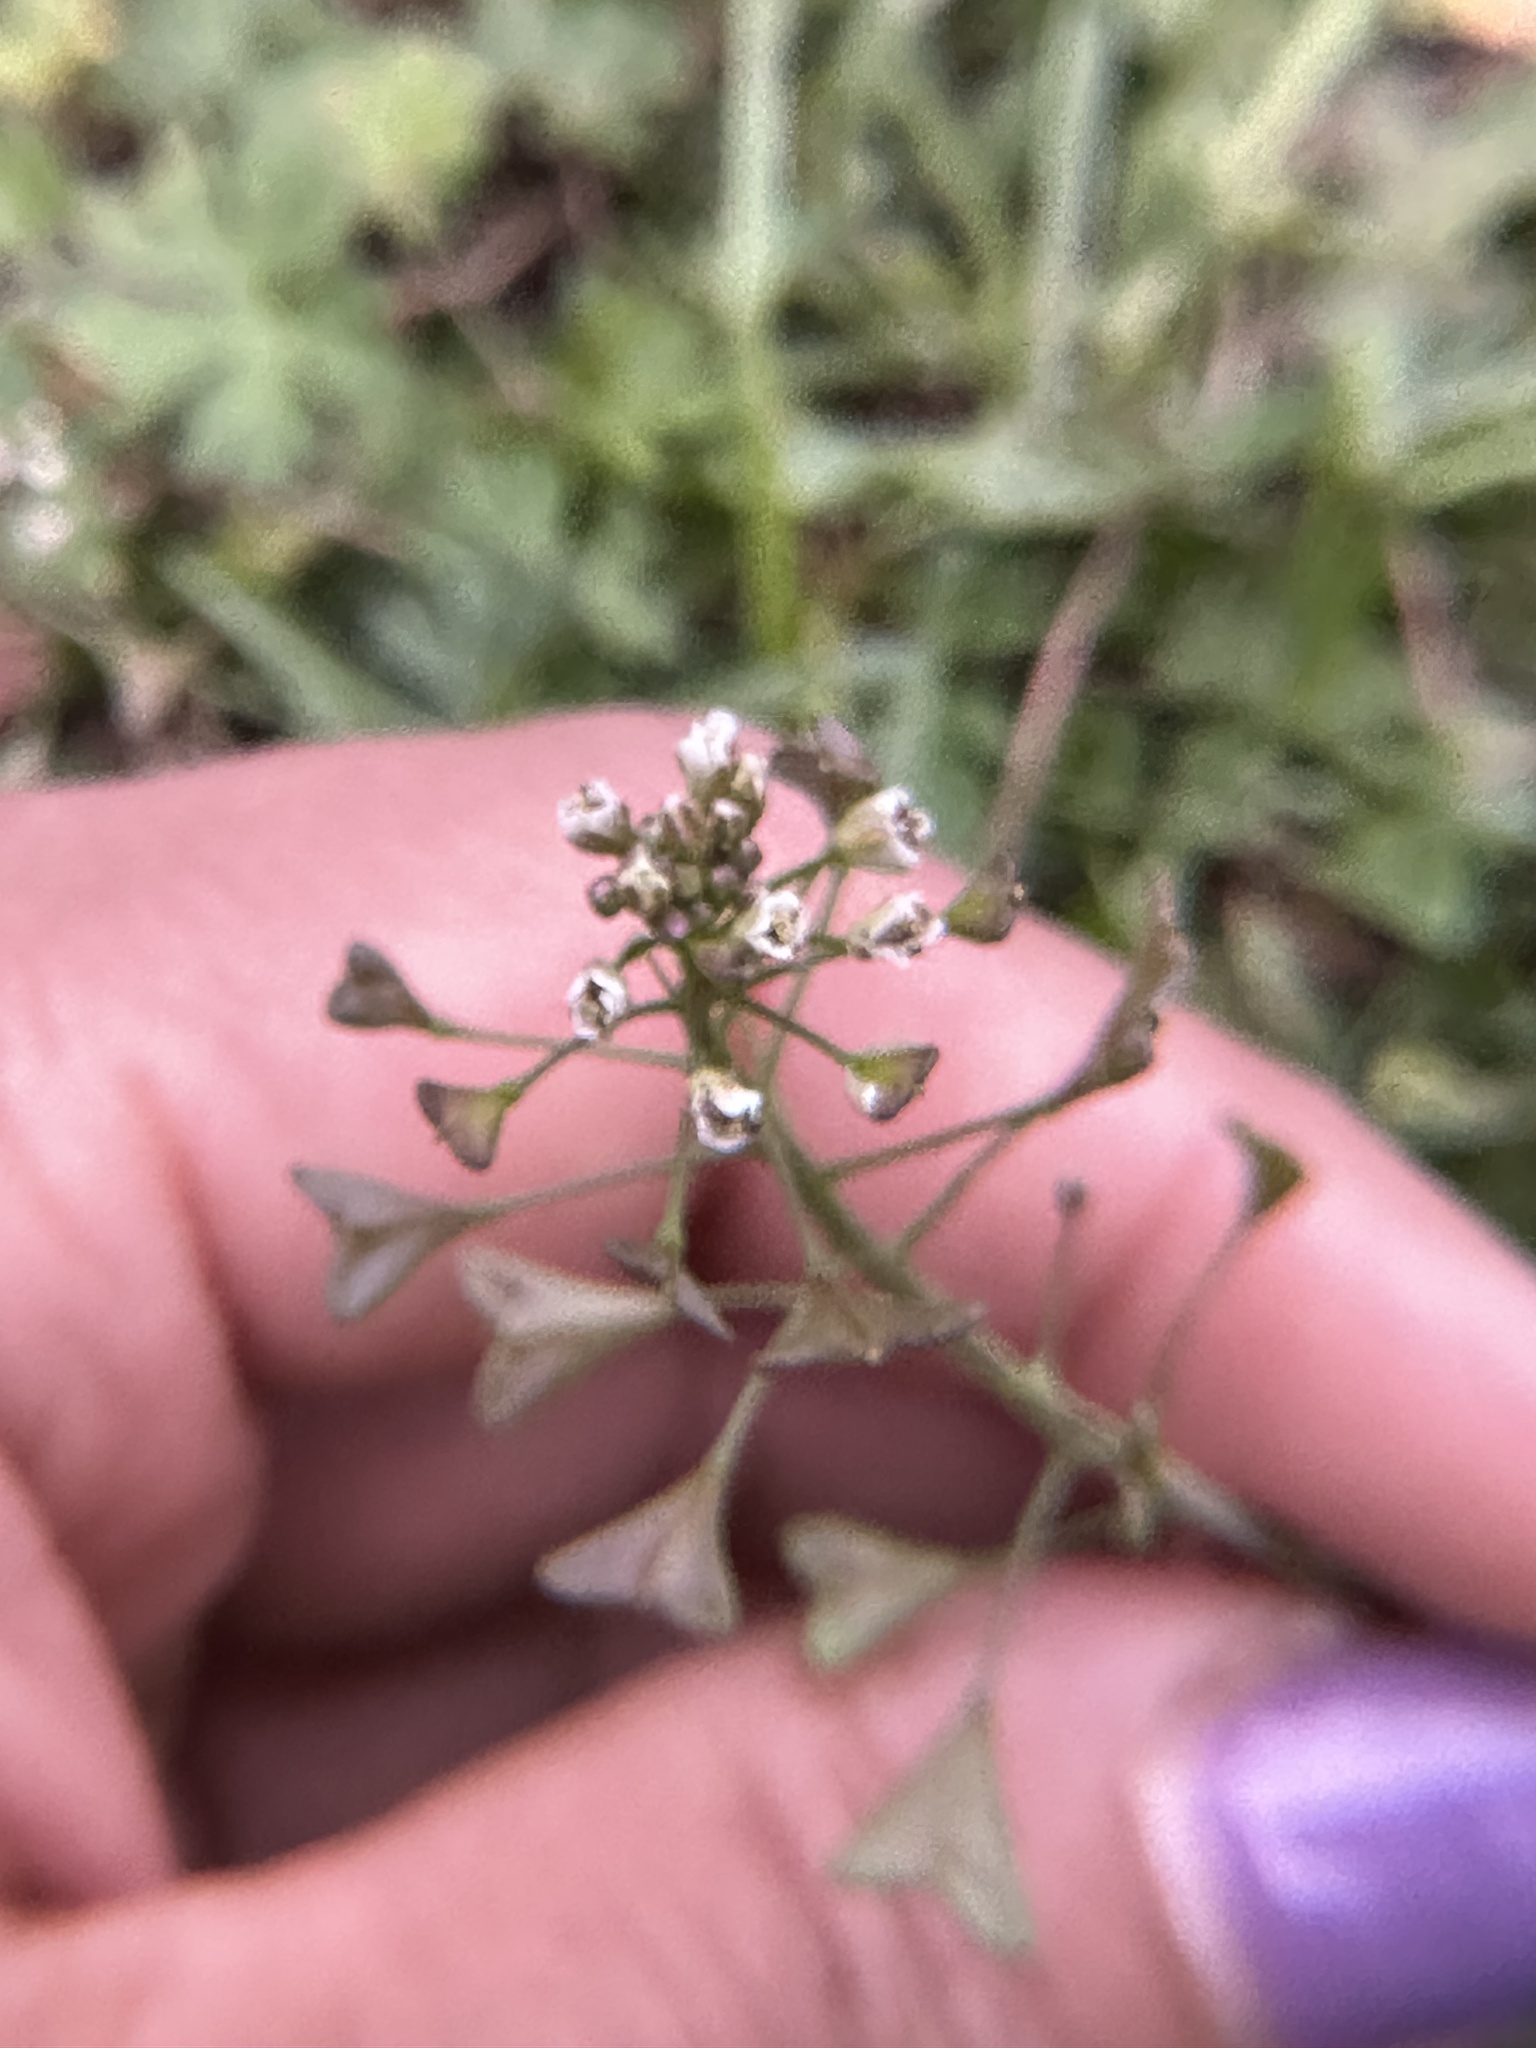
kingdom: Plantae
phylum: Tracheophyta
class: Magnoliopsida
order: Brassicales
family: Brassicaceae
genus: Capsella
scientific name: Capsella bursa-pastoris
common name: Shepherd's purse
